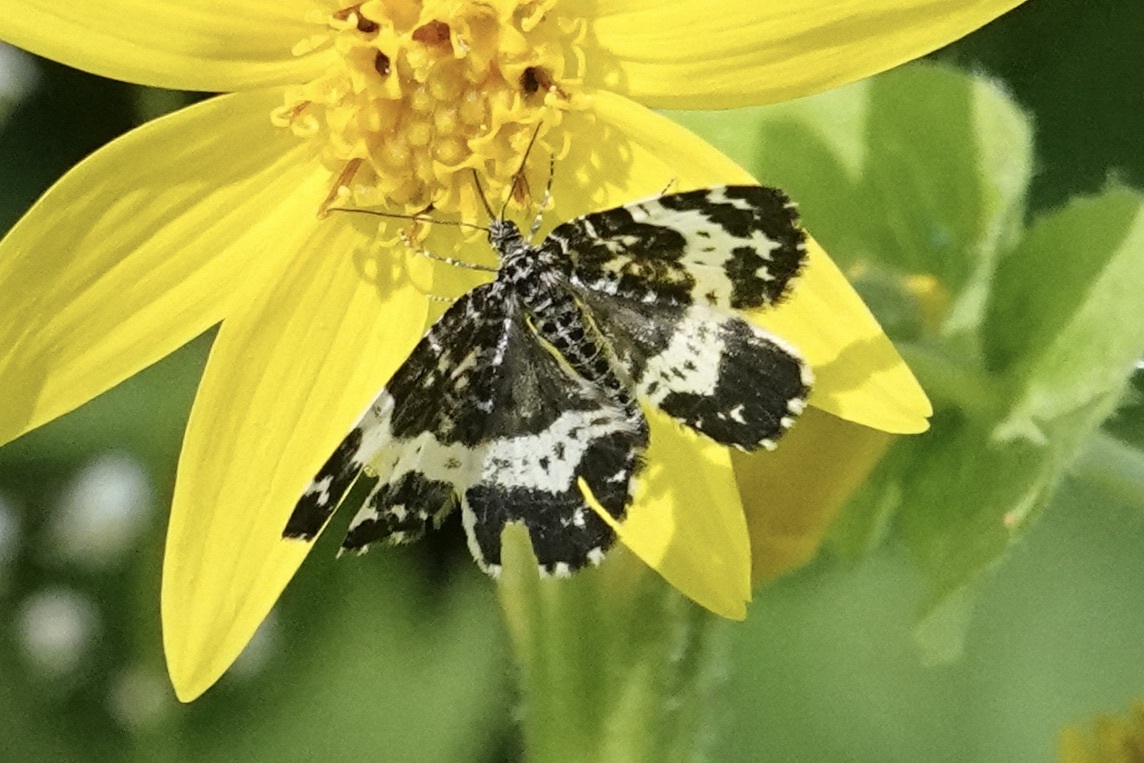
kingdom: Animalia
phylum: Arthropoda
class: Insecta
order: Lepidoptera
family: Geometridae
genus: Rheumaptera
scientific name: Rheumaptera
